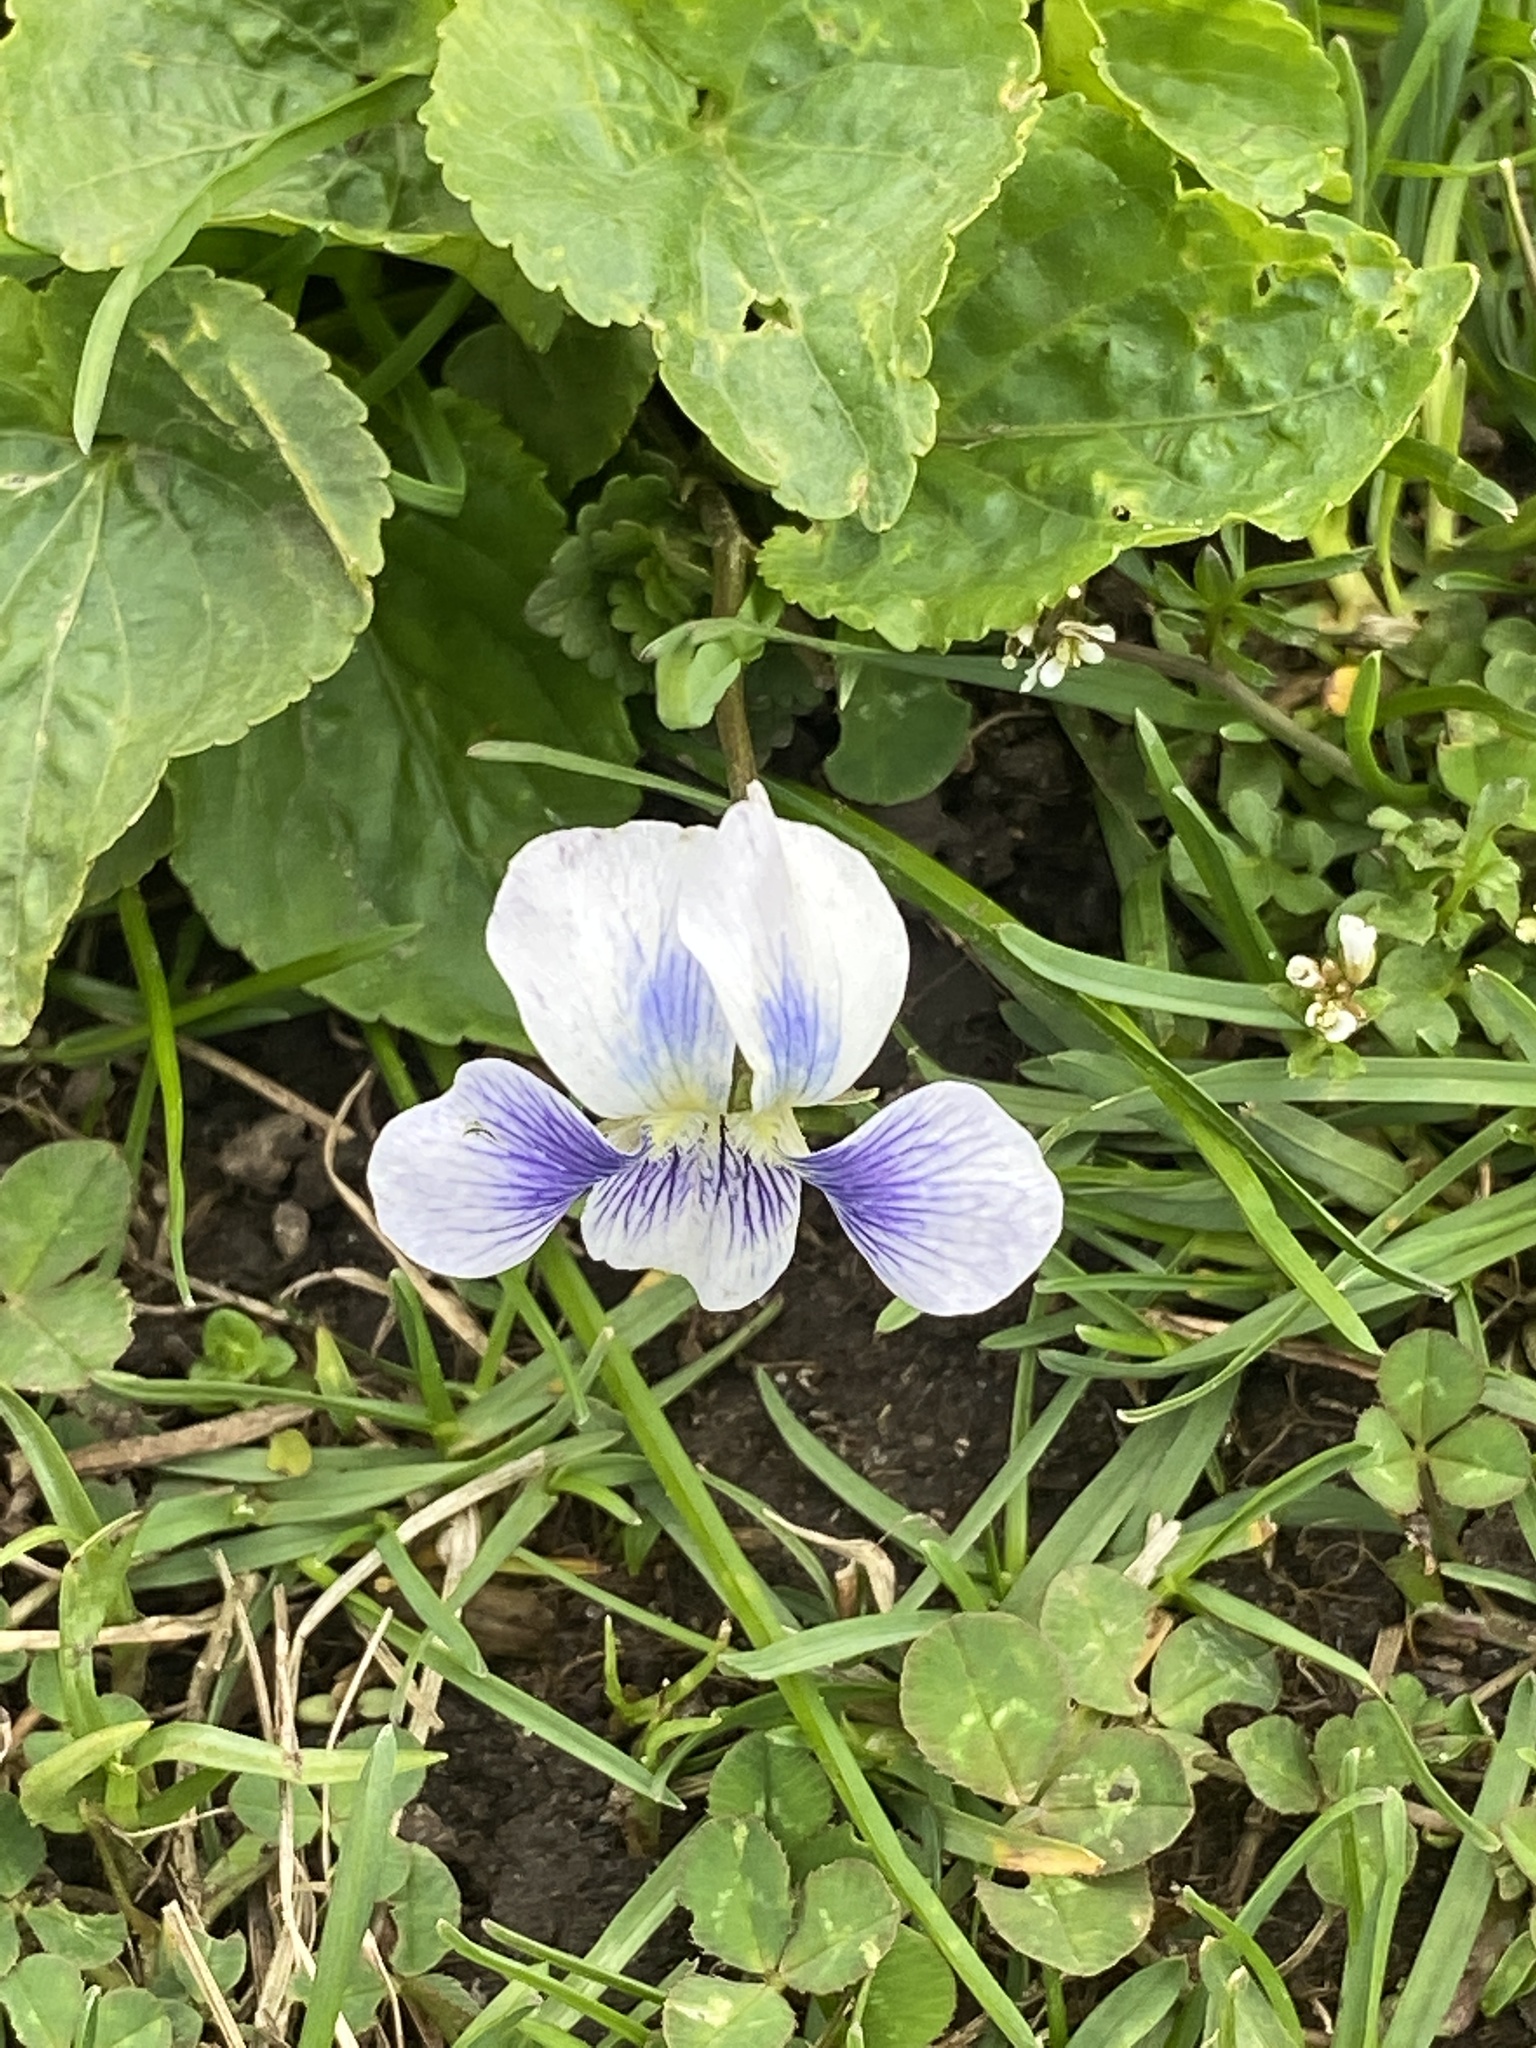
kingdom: Plantae
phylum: Tracheophyta
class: Magnoliopsida
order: Malpighiales
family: Violaceae
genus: Viola
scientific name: Viola sororia
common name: Dooryard violet
